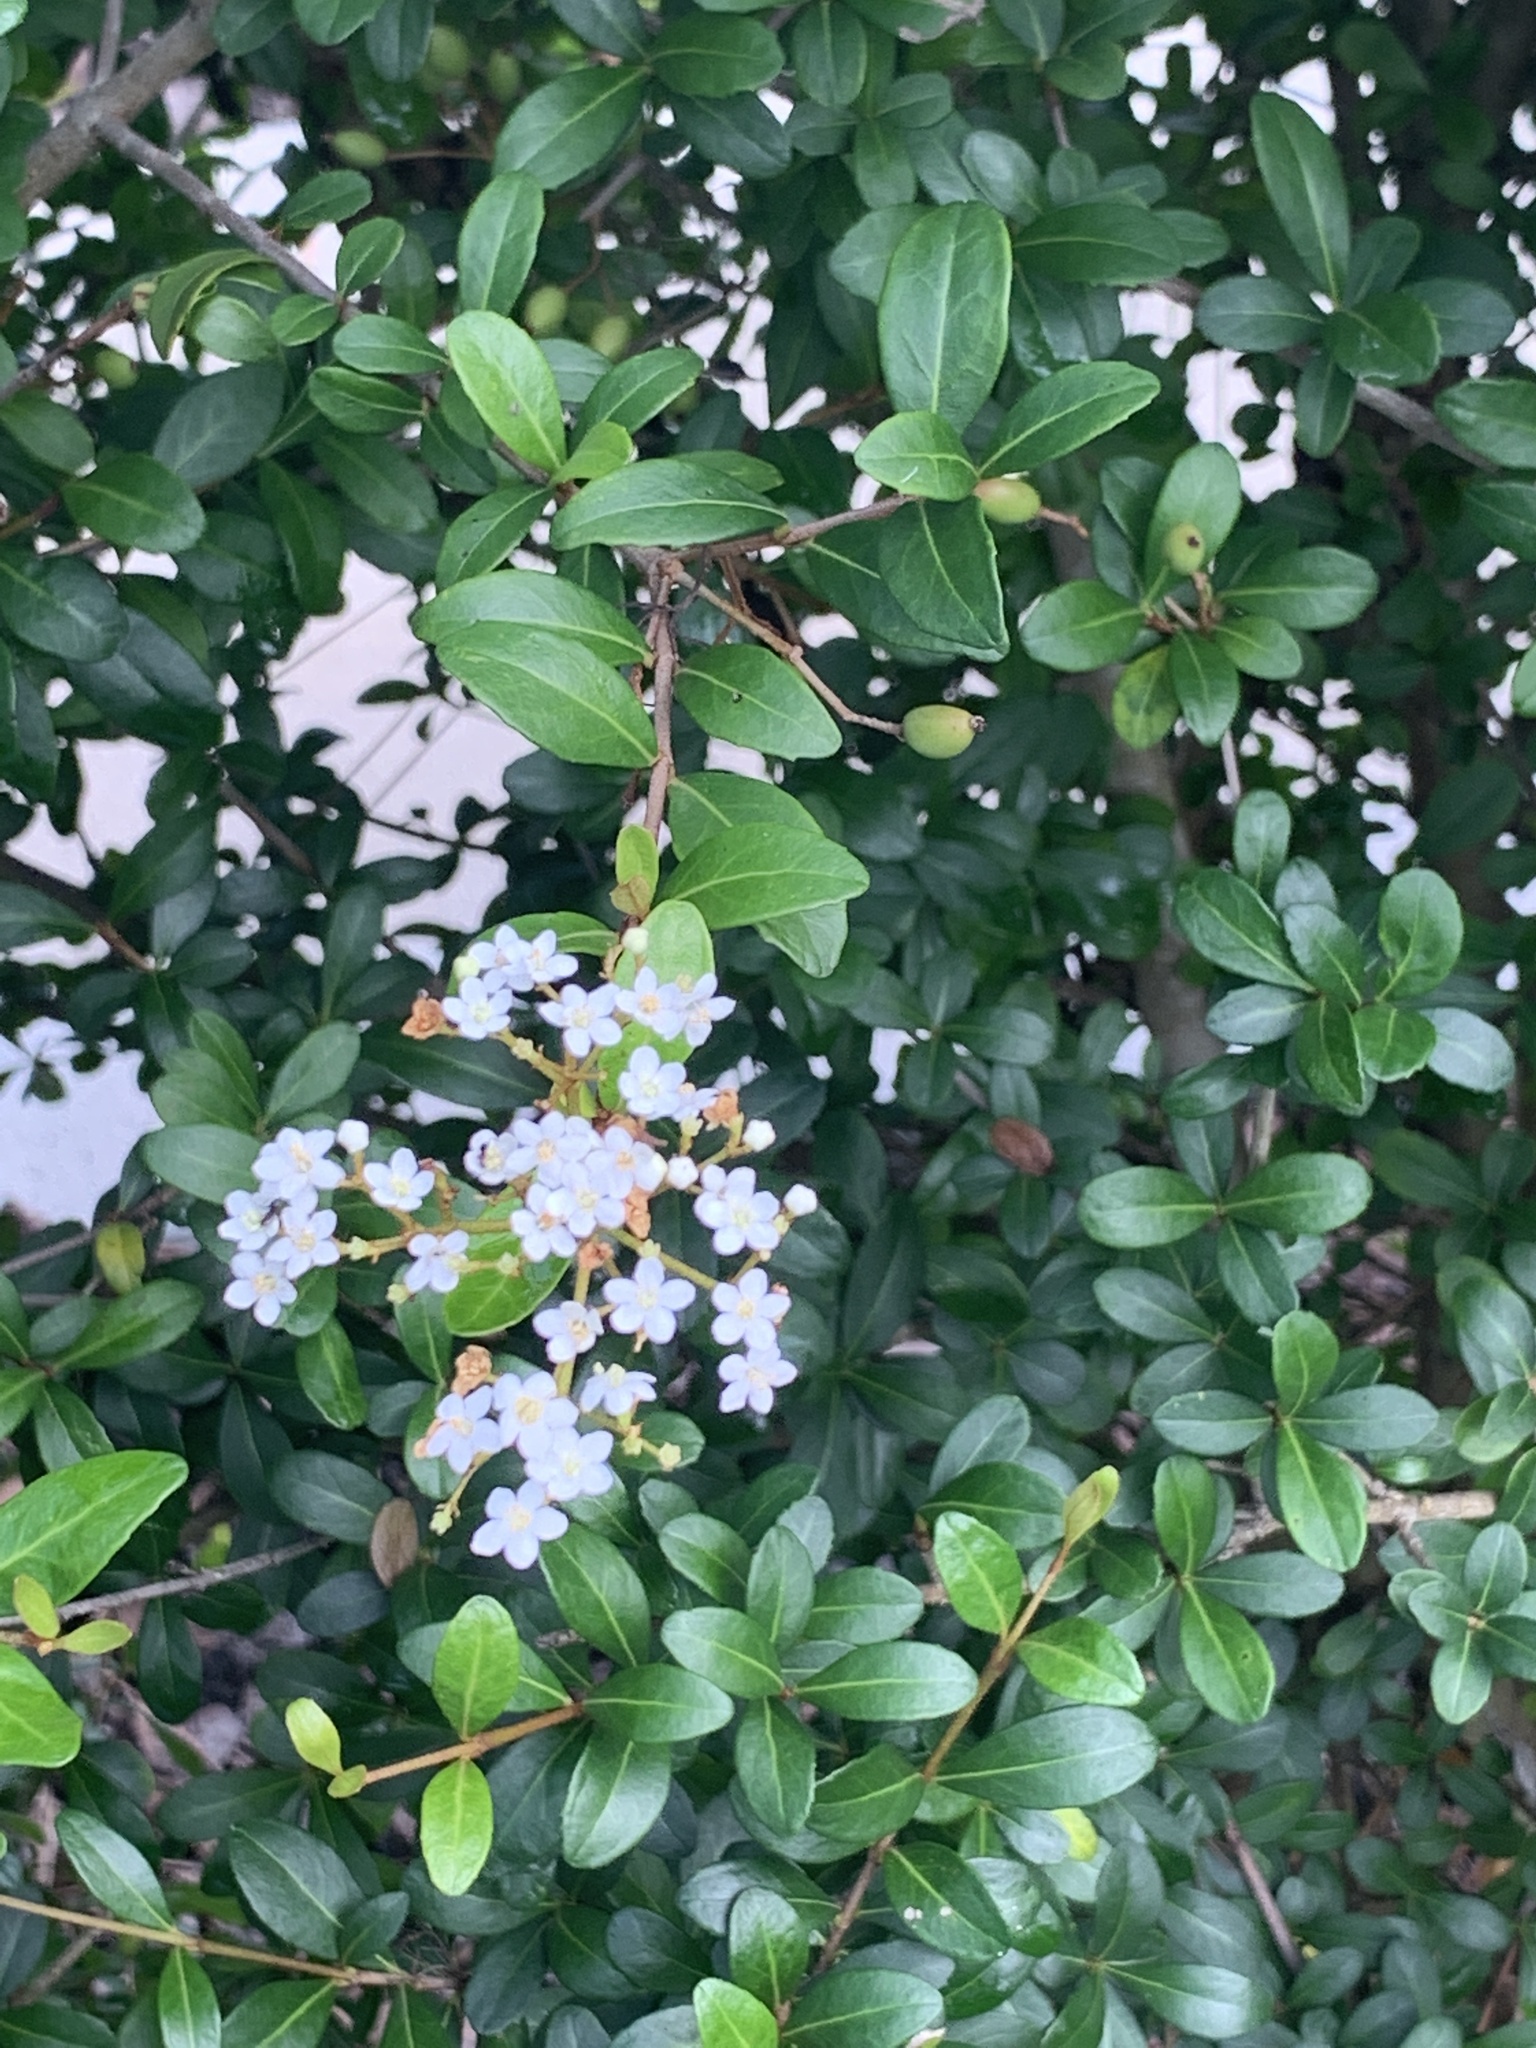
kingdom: Plantae
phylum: Tracheophyta
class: Magnoliopsida
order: Dipsacales
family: Viburnaceae
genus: Viburnum
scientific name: Viburnum obovatum
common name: Walter's viburnum
